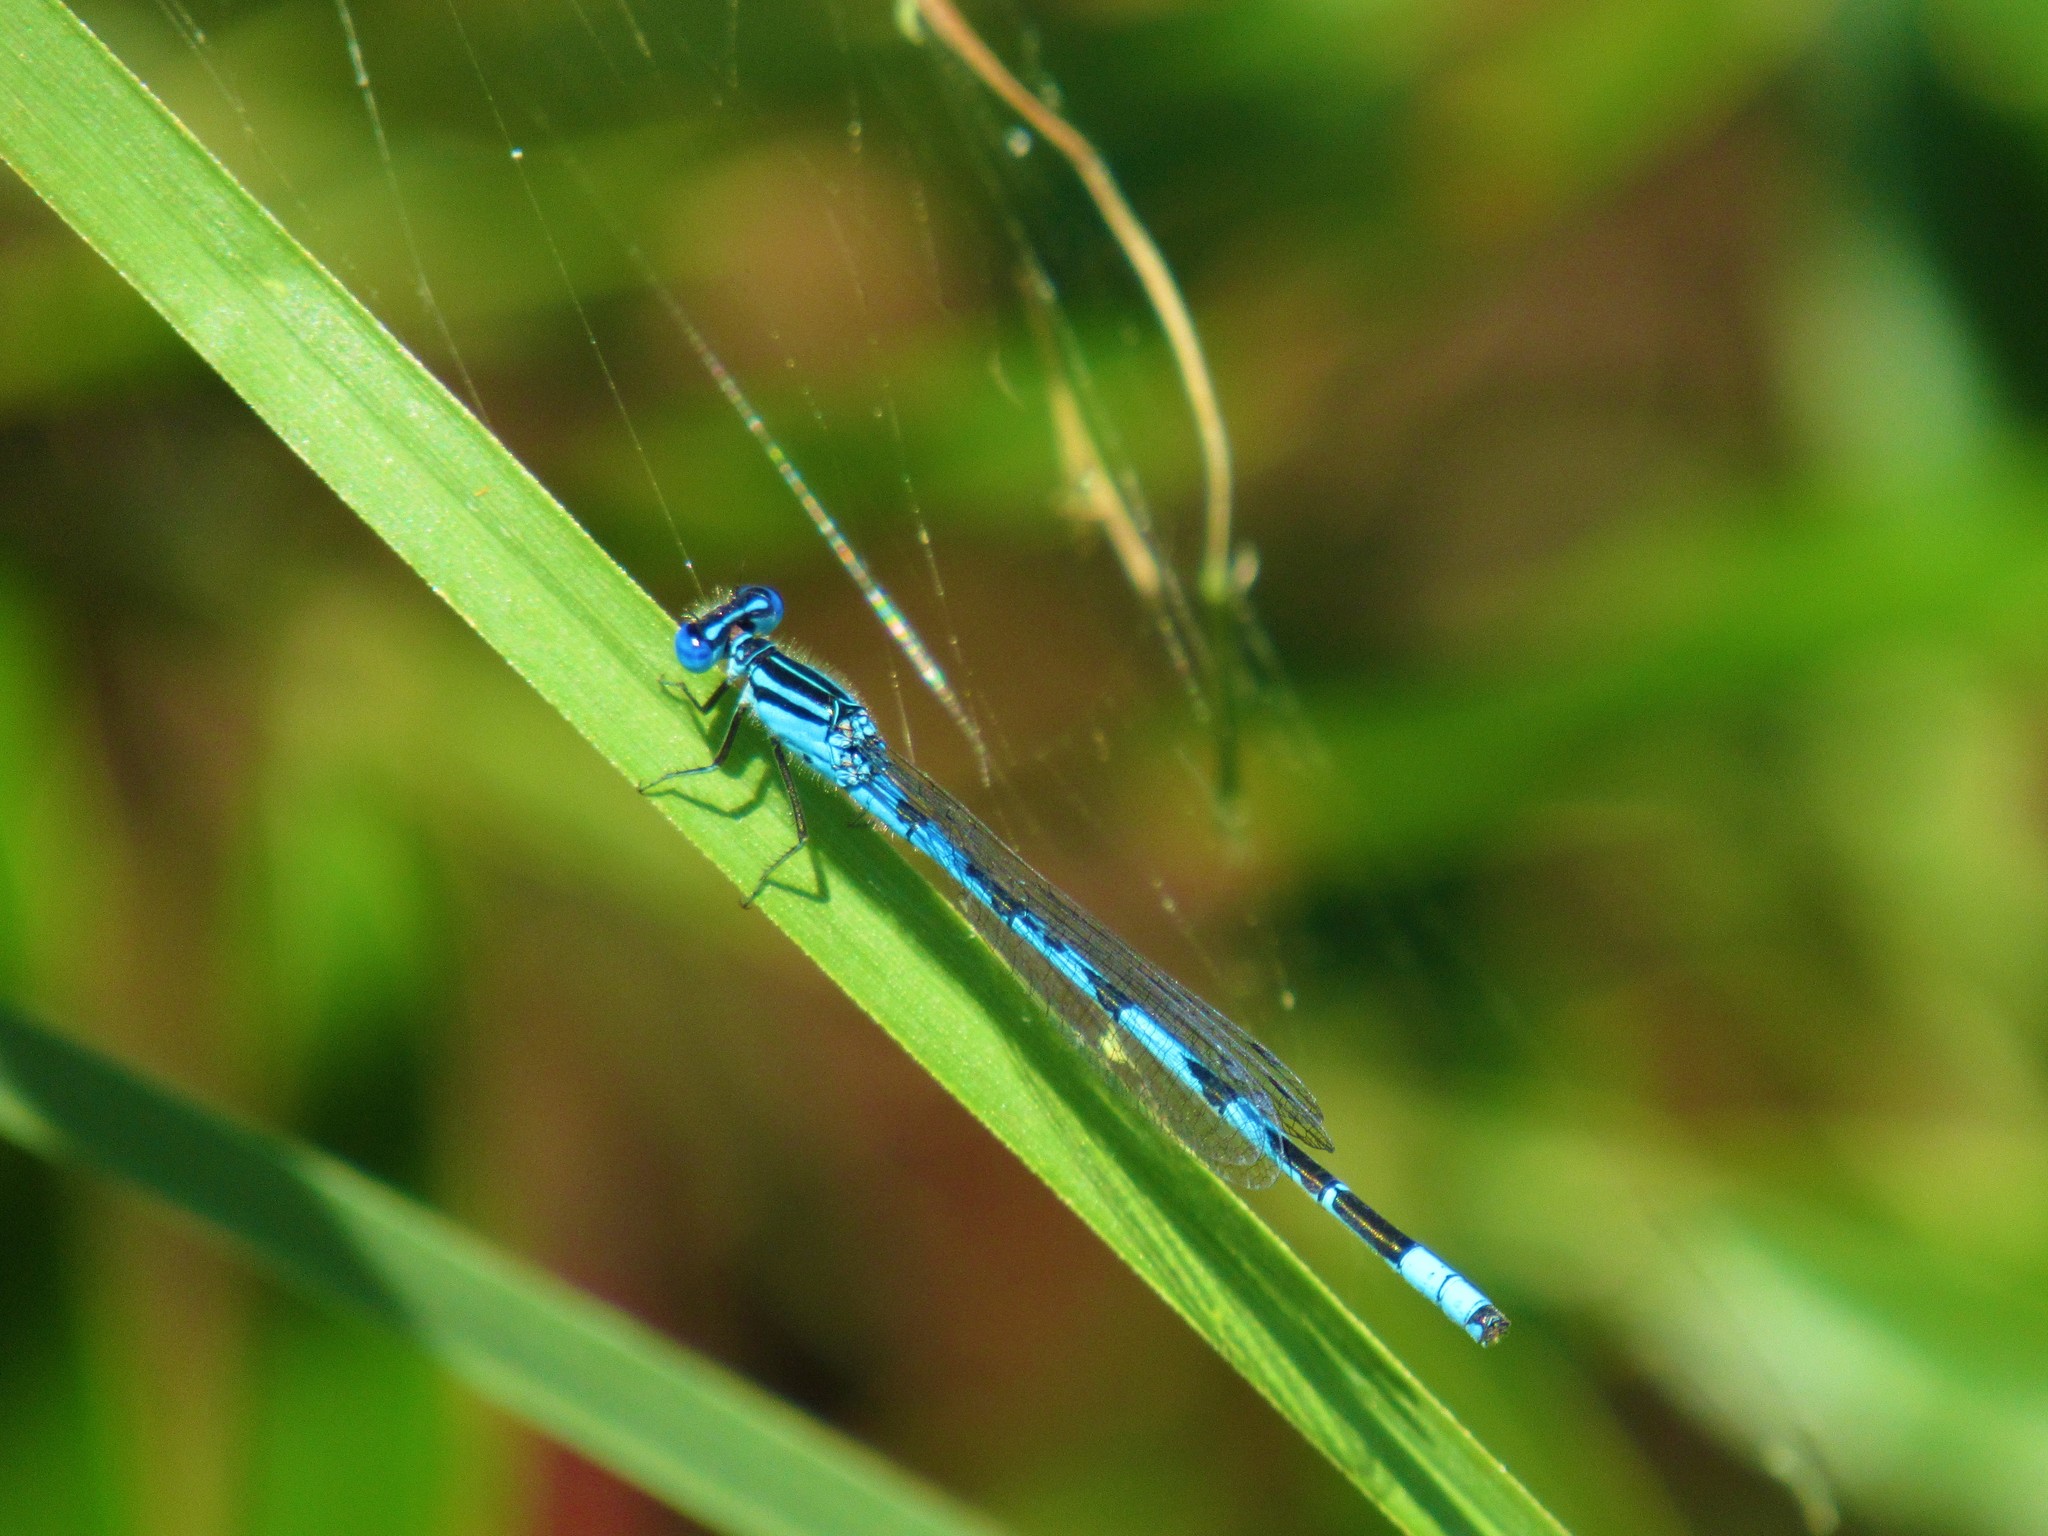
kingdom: Animalia
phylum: Arthropoda
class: Insecta
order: Odonata
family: Coenagrionidae
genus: Enallagma
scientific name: Enallagma durum
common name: Big bluet
